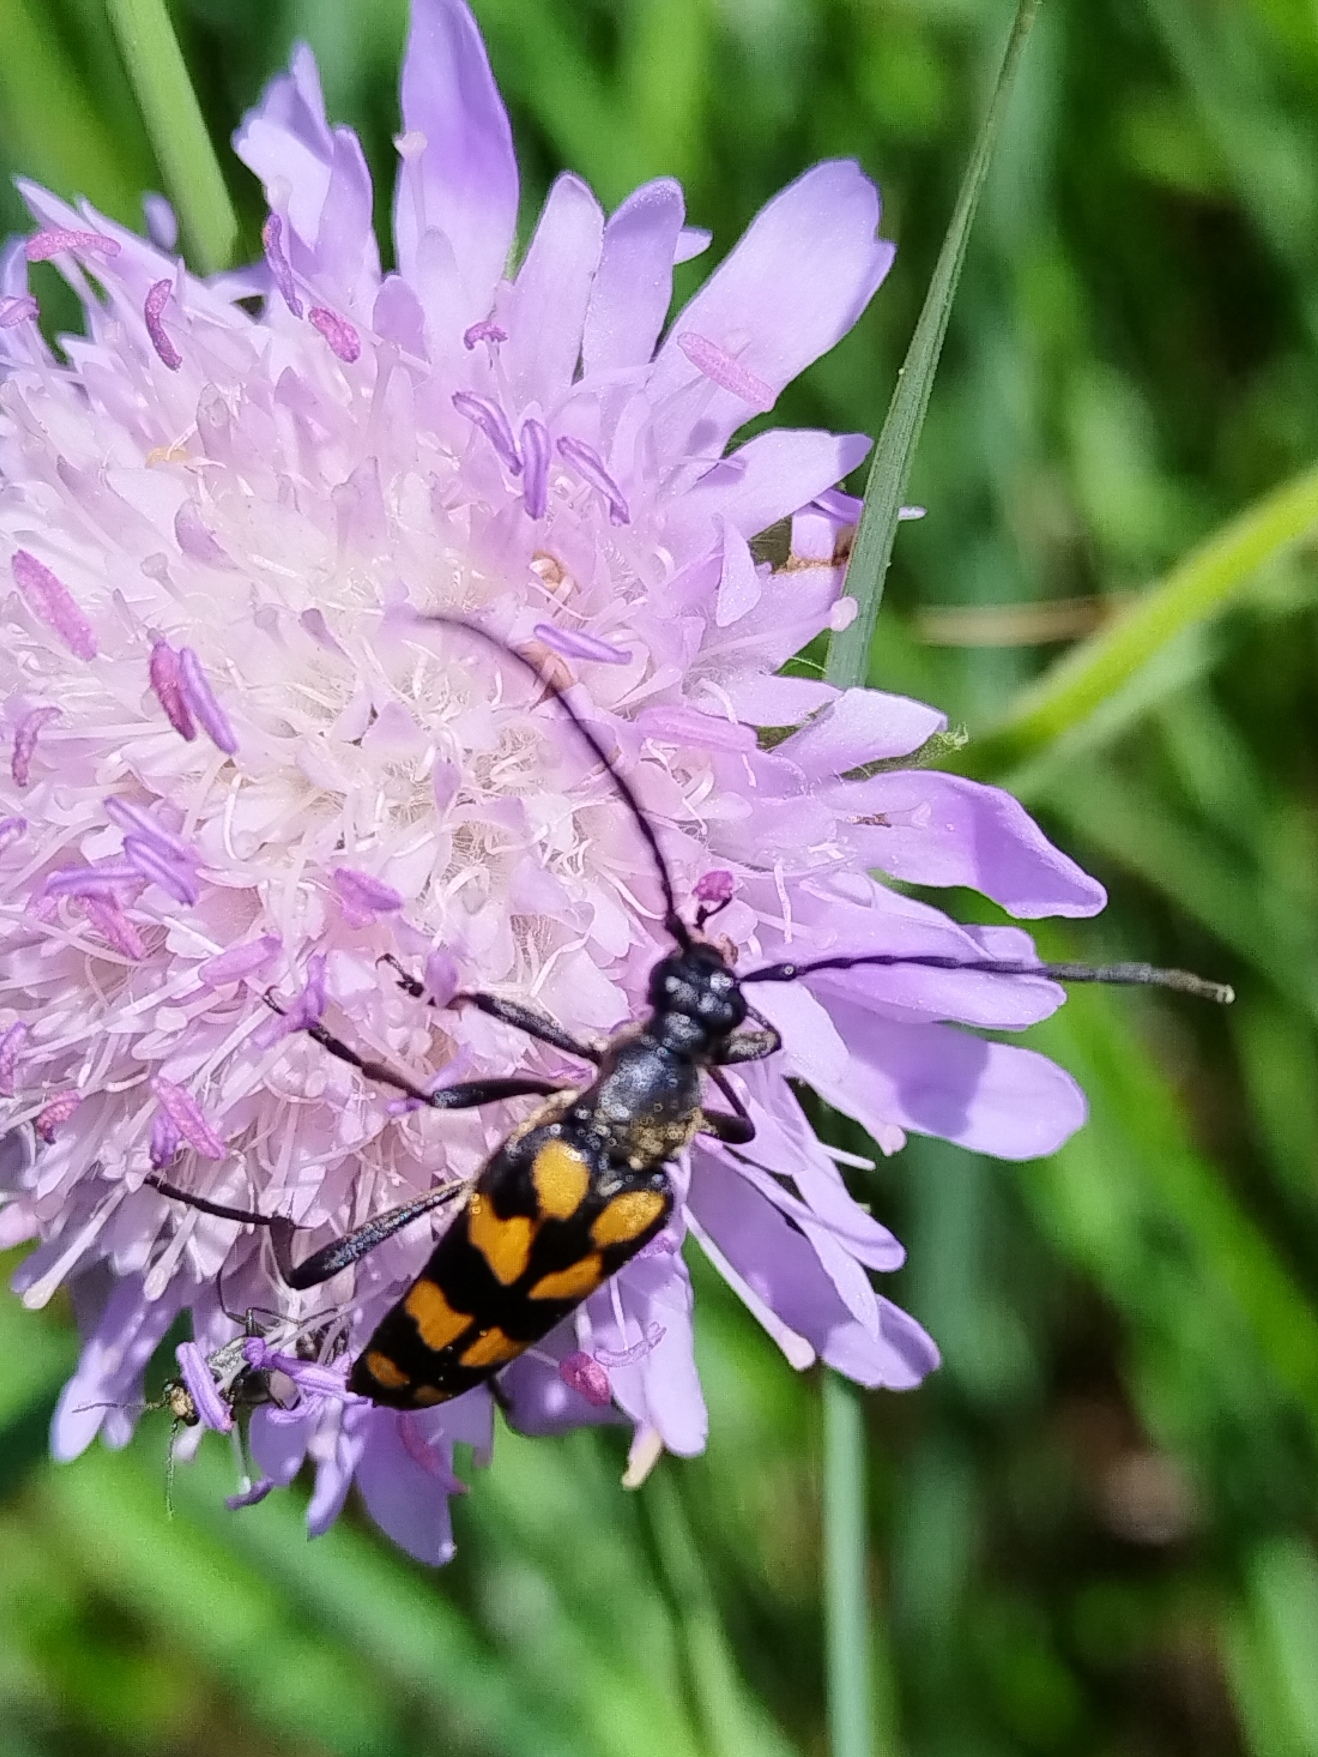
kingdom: Animalia
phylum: Arthropoda
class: Insecta
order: Coleoptera
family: Cerambycidae
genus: Leptura
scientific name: Leptura quadrifasciata
